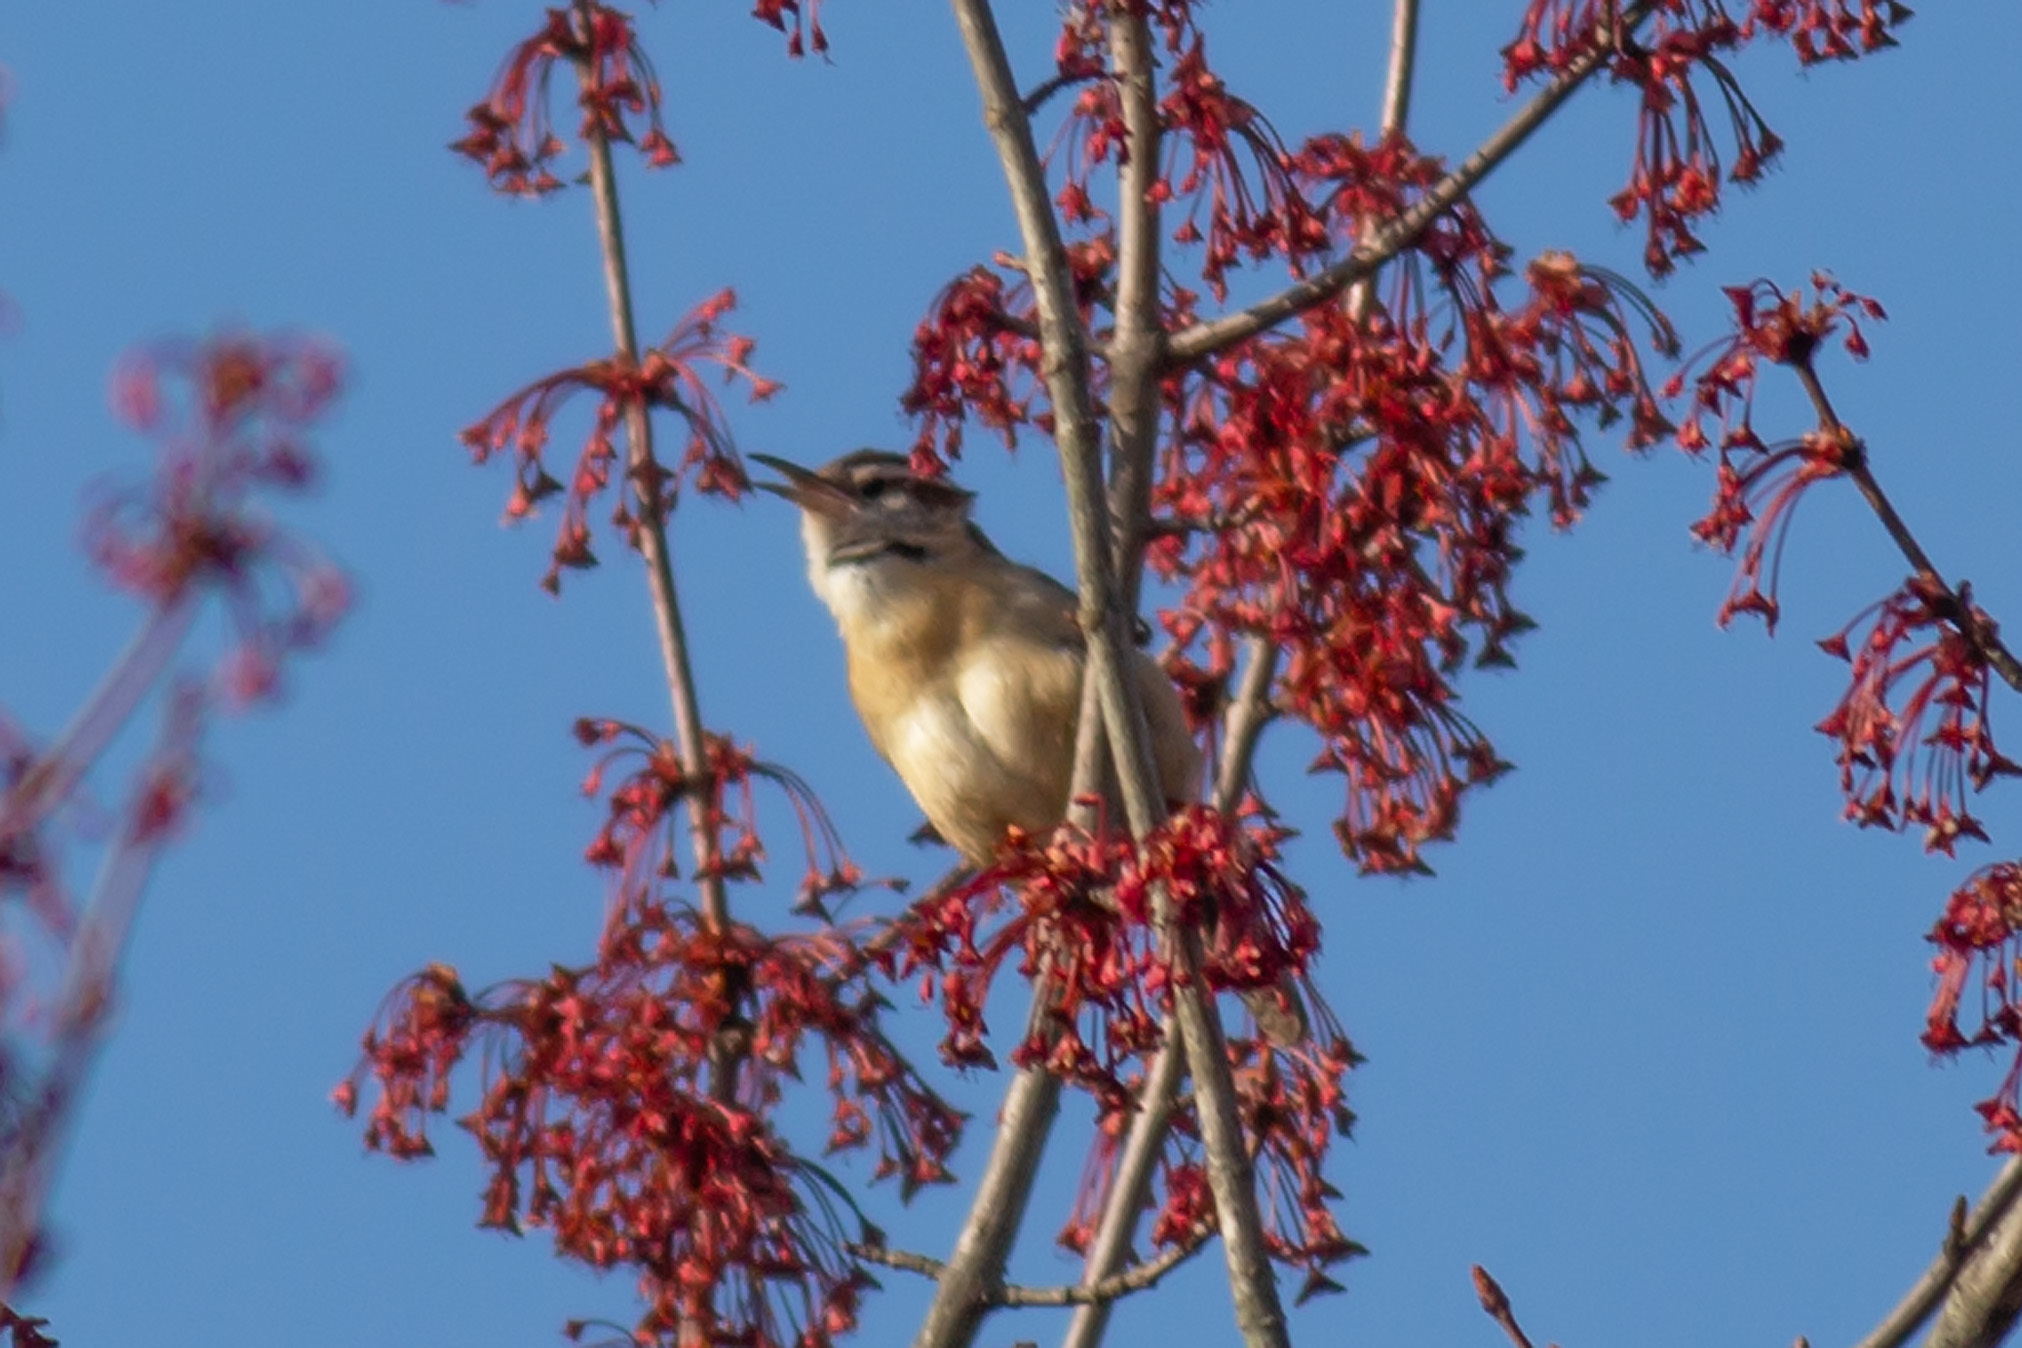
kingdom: Animalia
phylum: Chordata
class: Aves
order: Passeriformes
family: Troglodytidae
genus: Thryothorus
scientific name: Thryothorus ludovicianus
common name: Carolina wren
